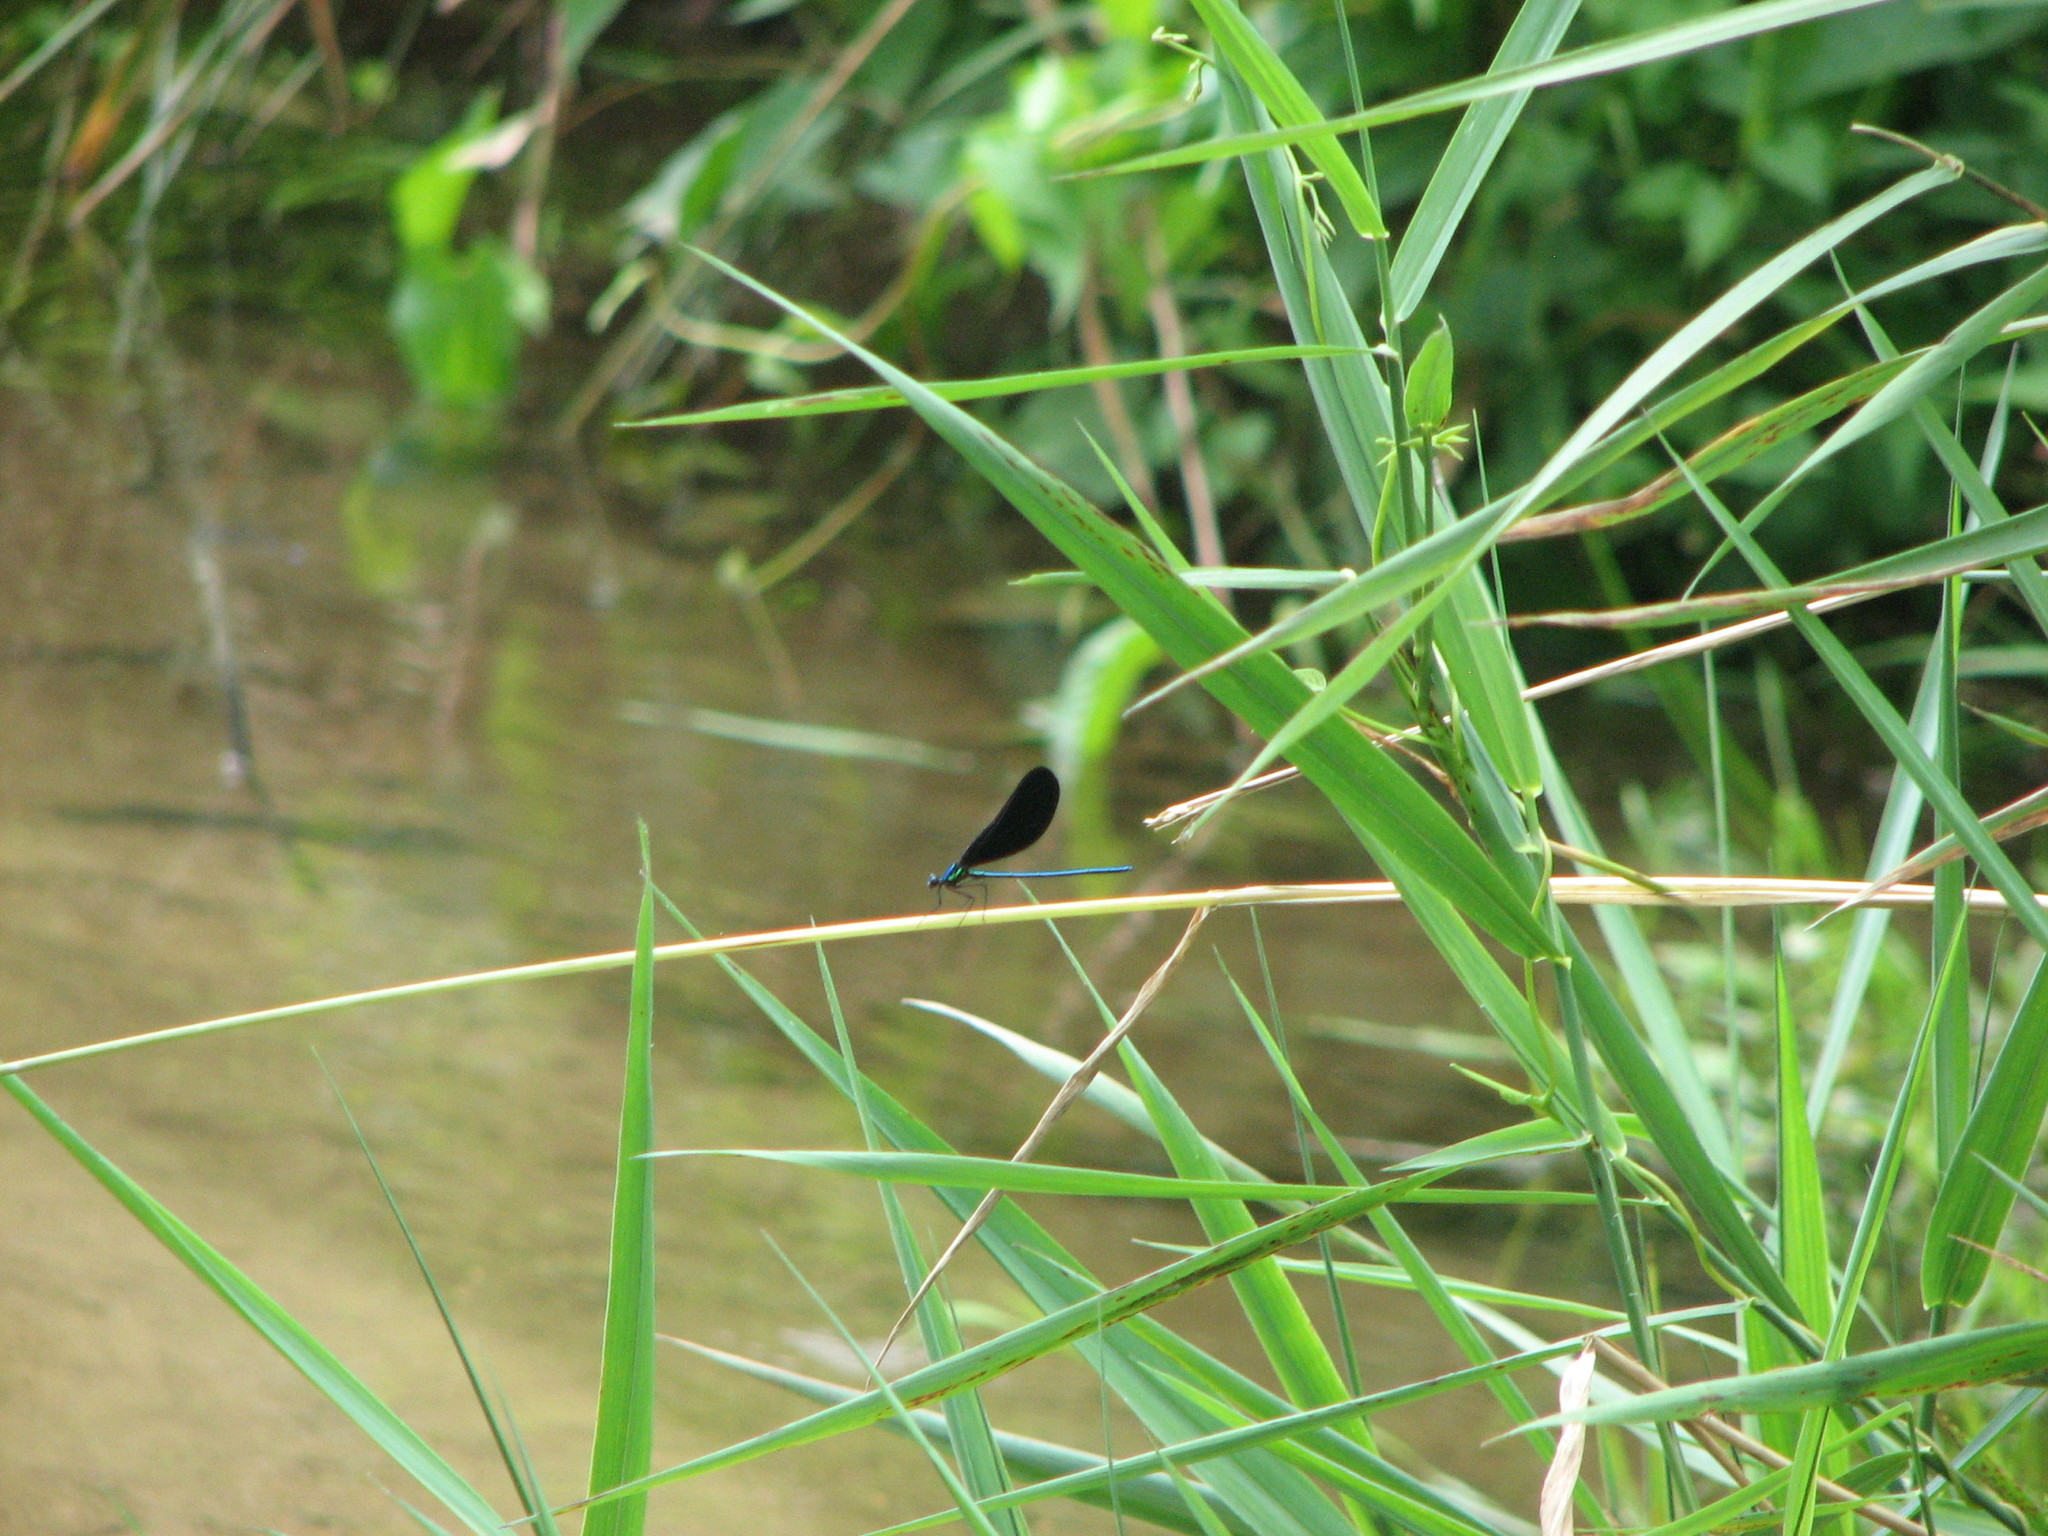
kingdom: Animalia
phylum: Arthropoda
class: Insecta
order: Odonata
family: Calopterygidae
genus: Calopteryx
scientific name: Calopteryx maculata
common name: Ebony jewelwing
